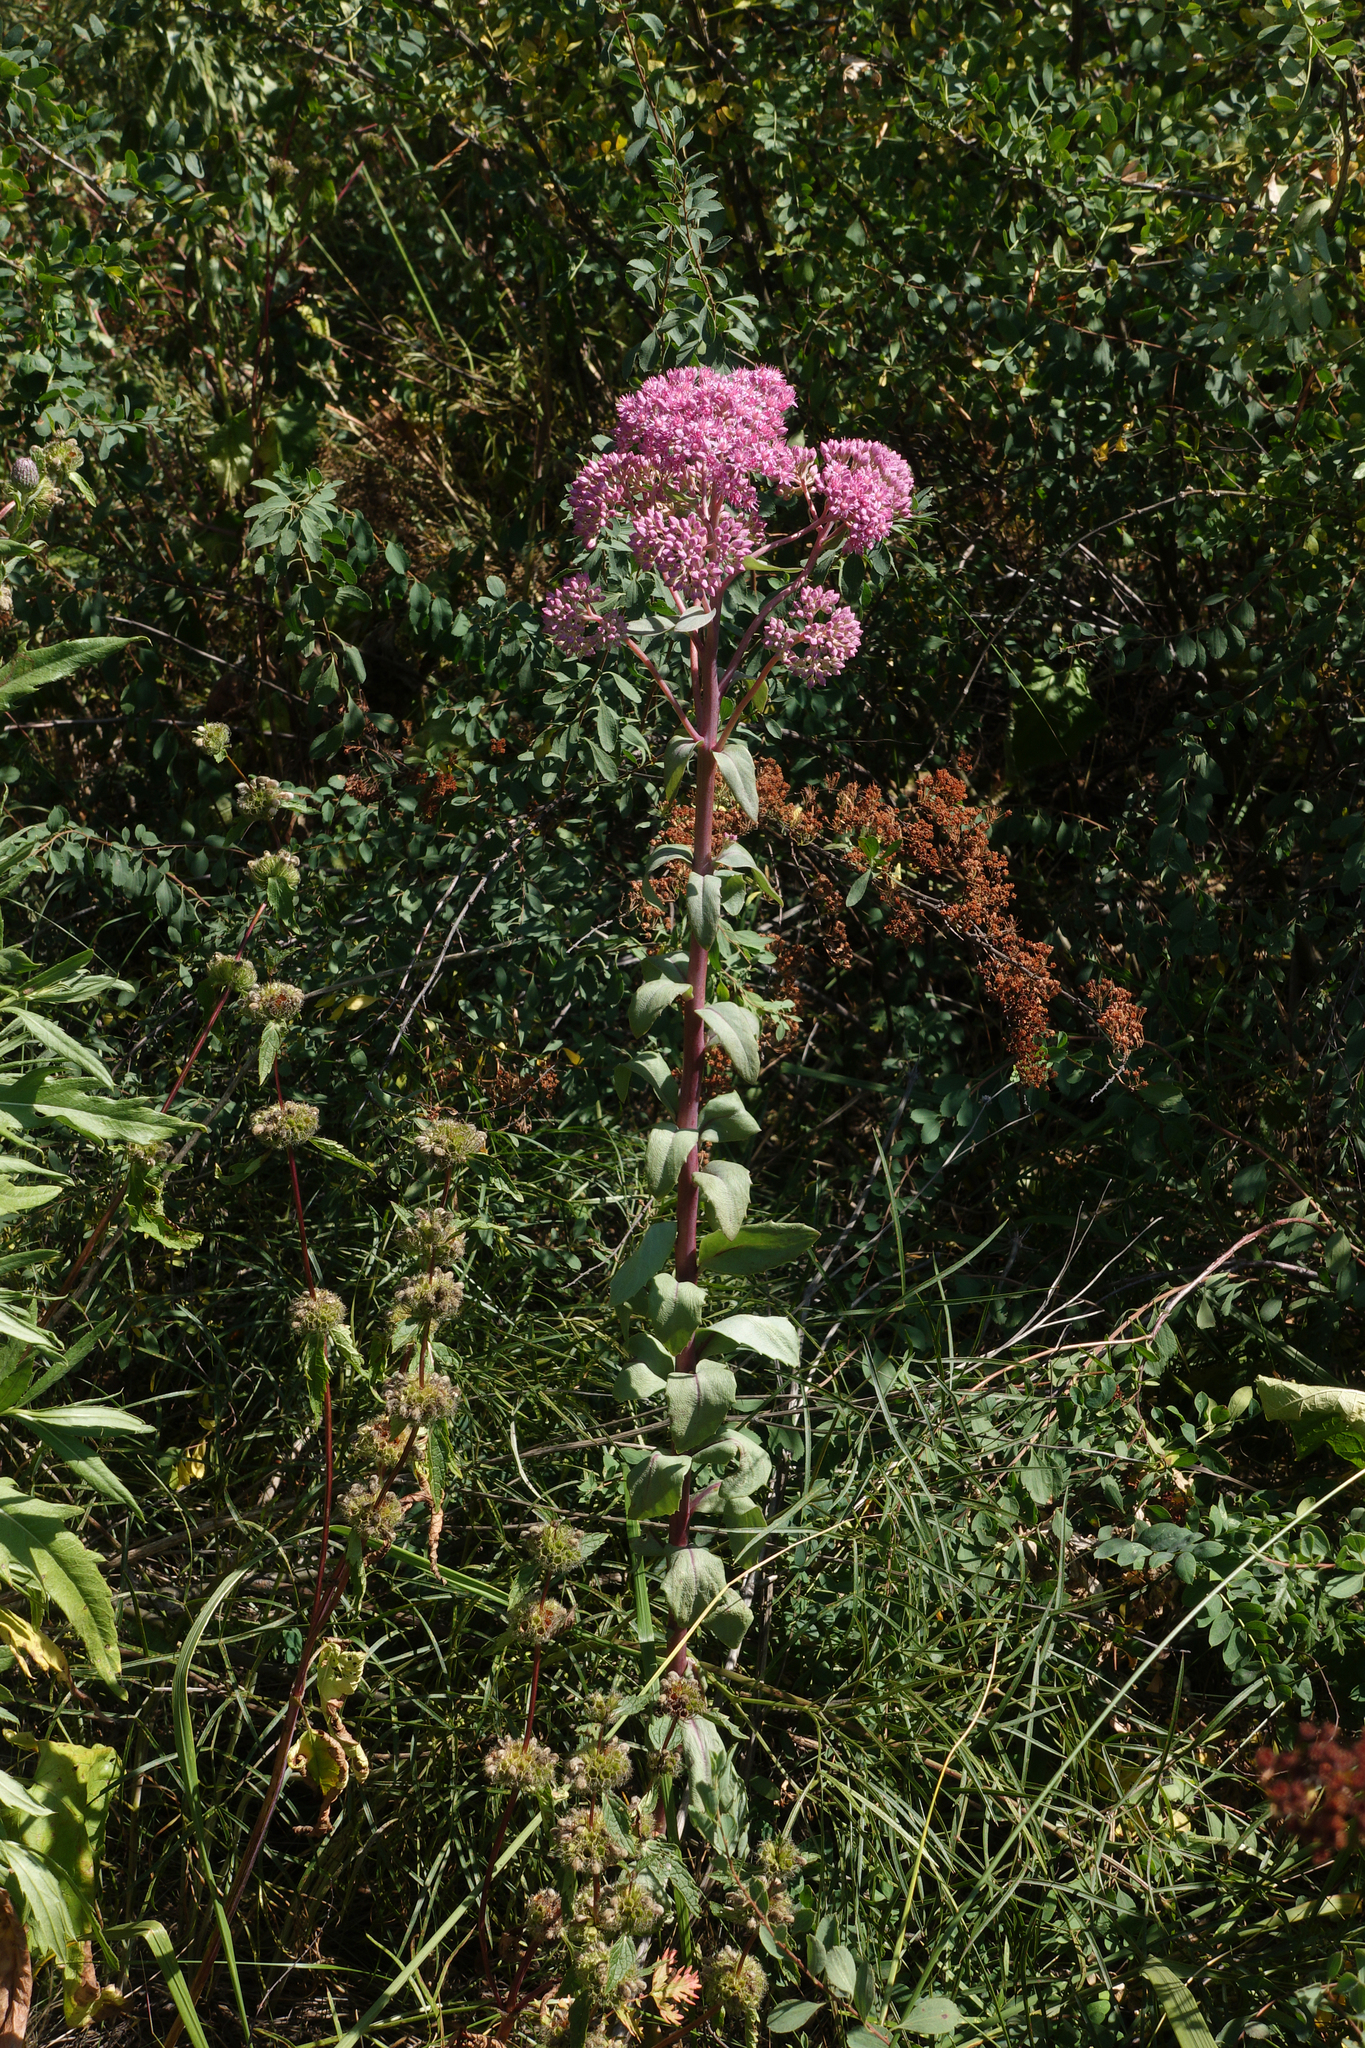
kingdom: Plantae
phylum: Tracheophyta
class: Magnoliopsida
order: Saxifragales
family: Crassulaceae
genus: Hylotelephium
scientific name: Hylotelephium telephium
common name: Live-forever
